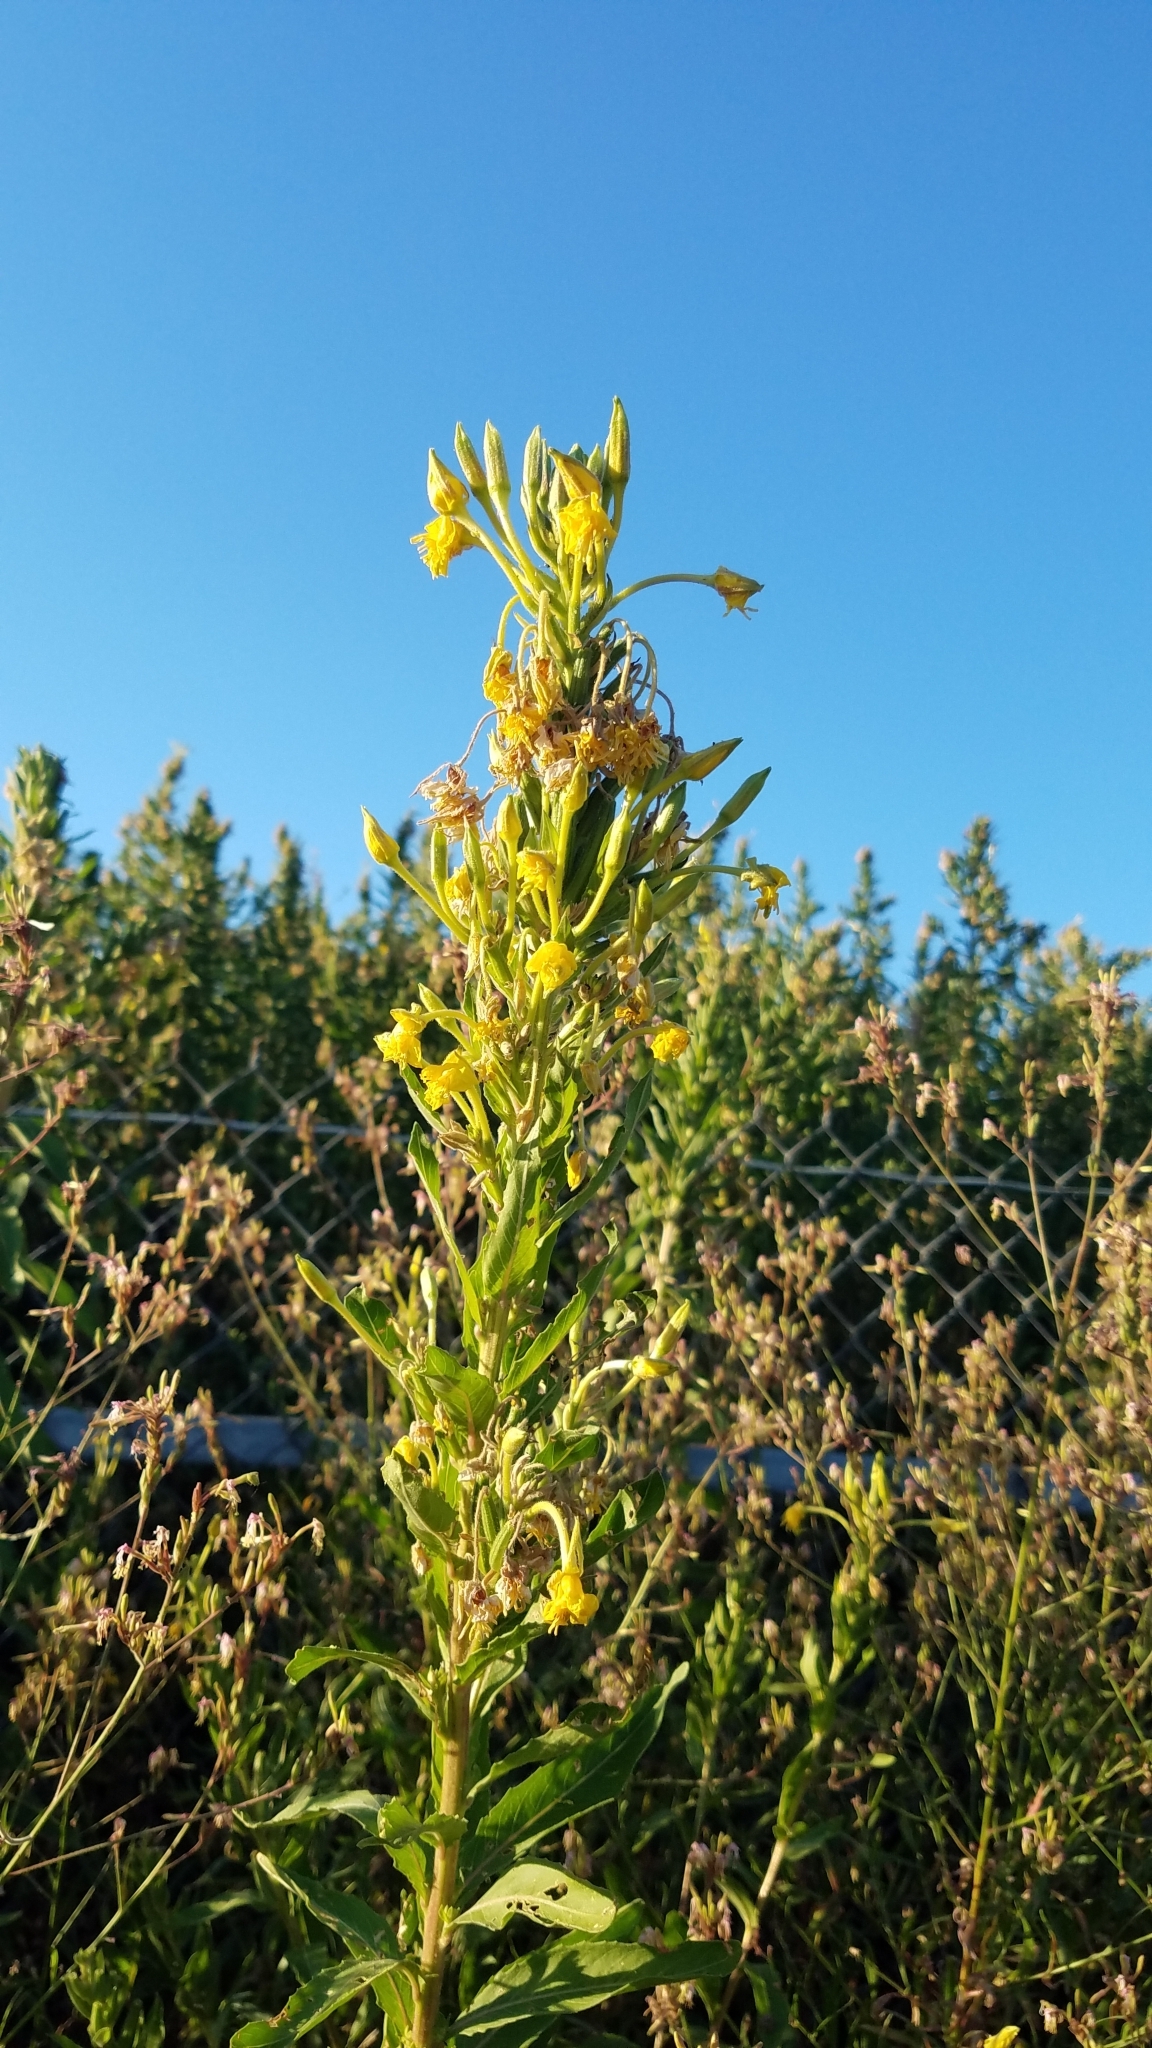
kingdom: Plantae
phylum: Tracheophyta
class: Magnoliopsida
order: Myrtales
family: Onagraceae
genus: Oenothera
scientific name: Oenothera biennis
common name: Common evening-primrose
